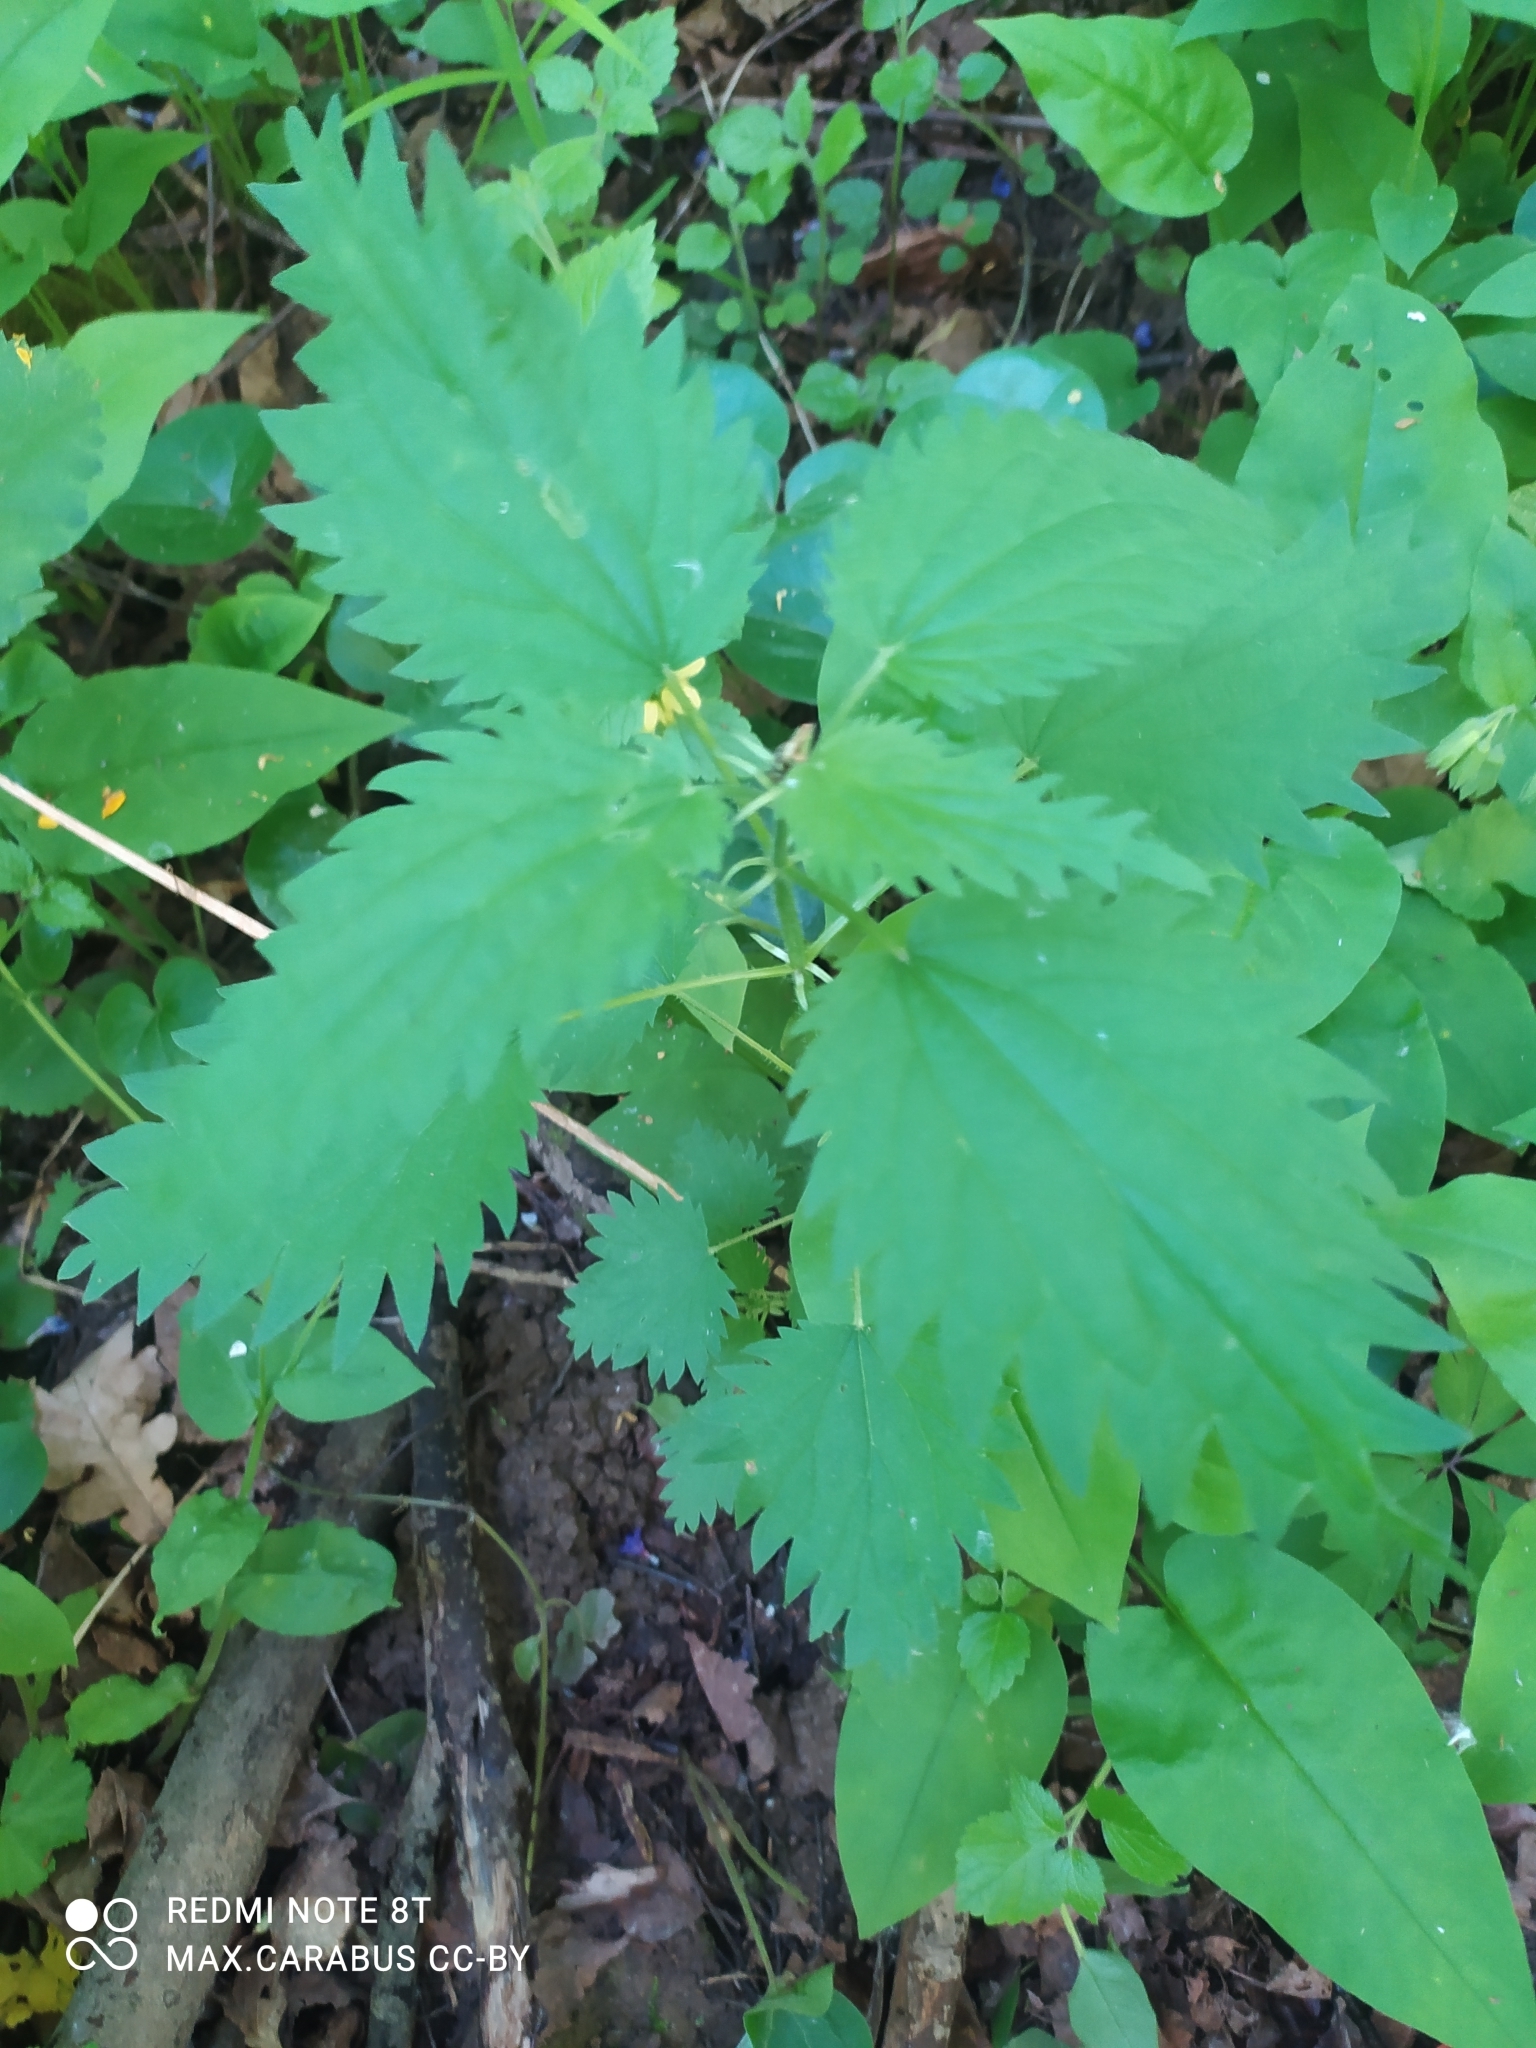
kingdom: Plantae
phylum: Tracheophyta
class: Magnoliopsida
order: Rosales
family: Urticaceae
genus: Urtica
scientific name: Urtica dioica
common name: Common nettle
